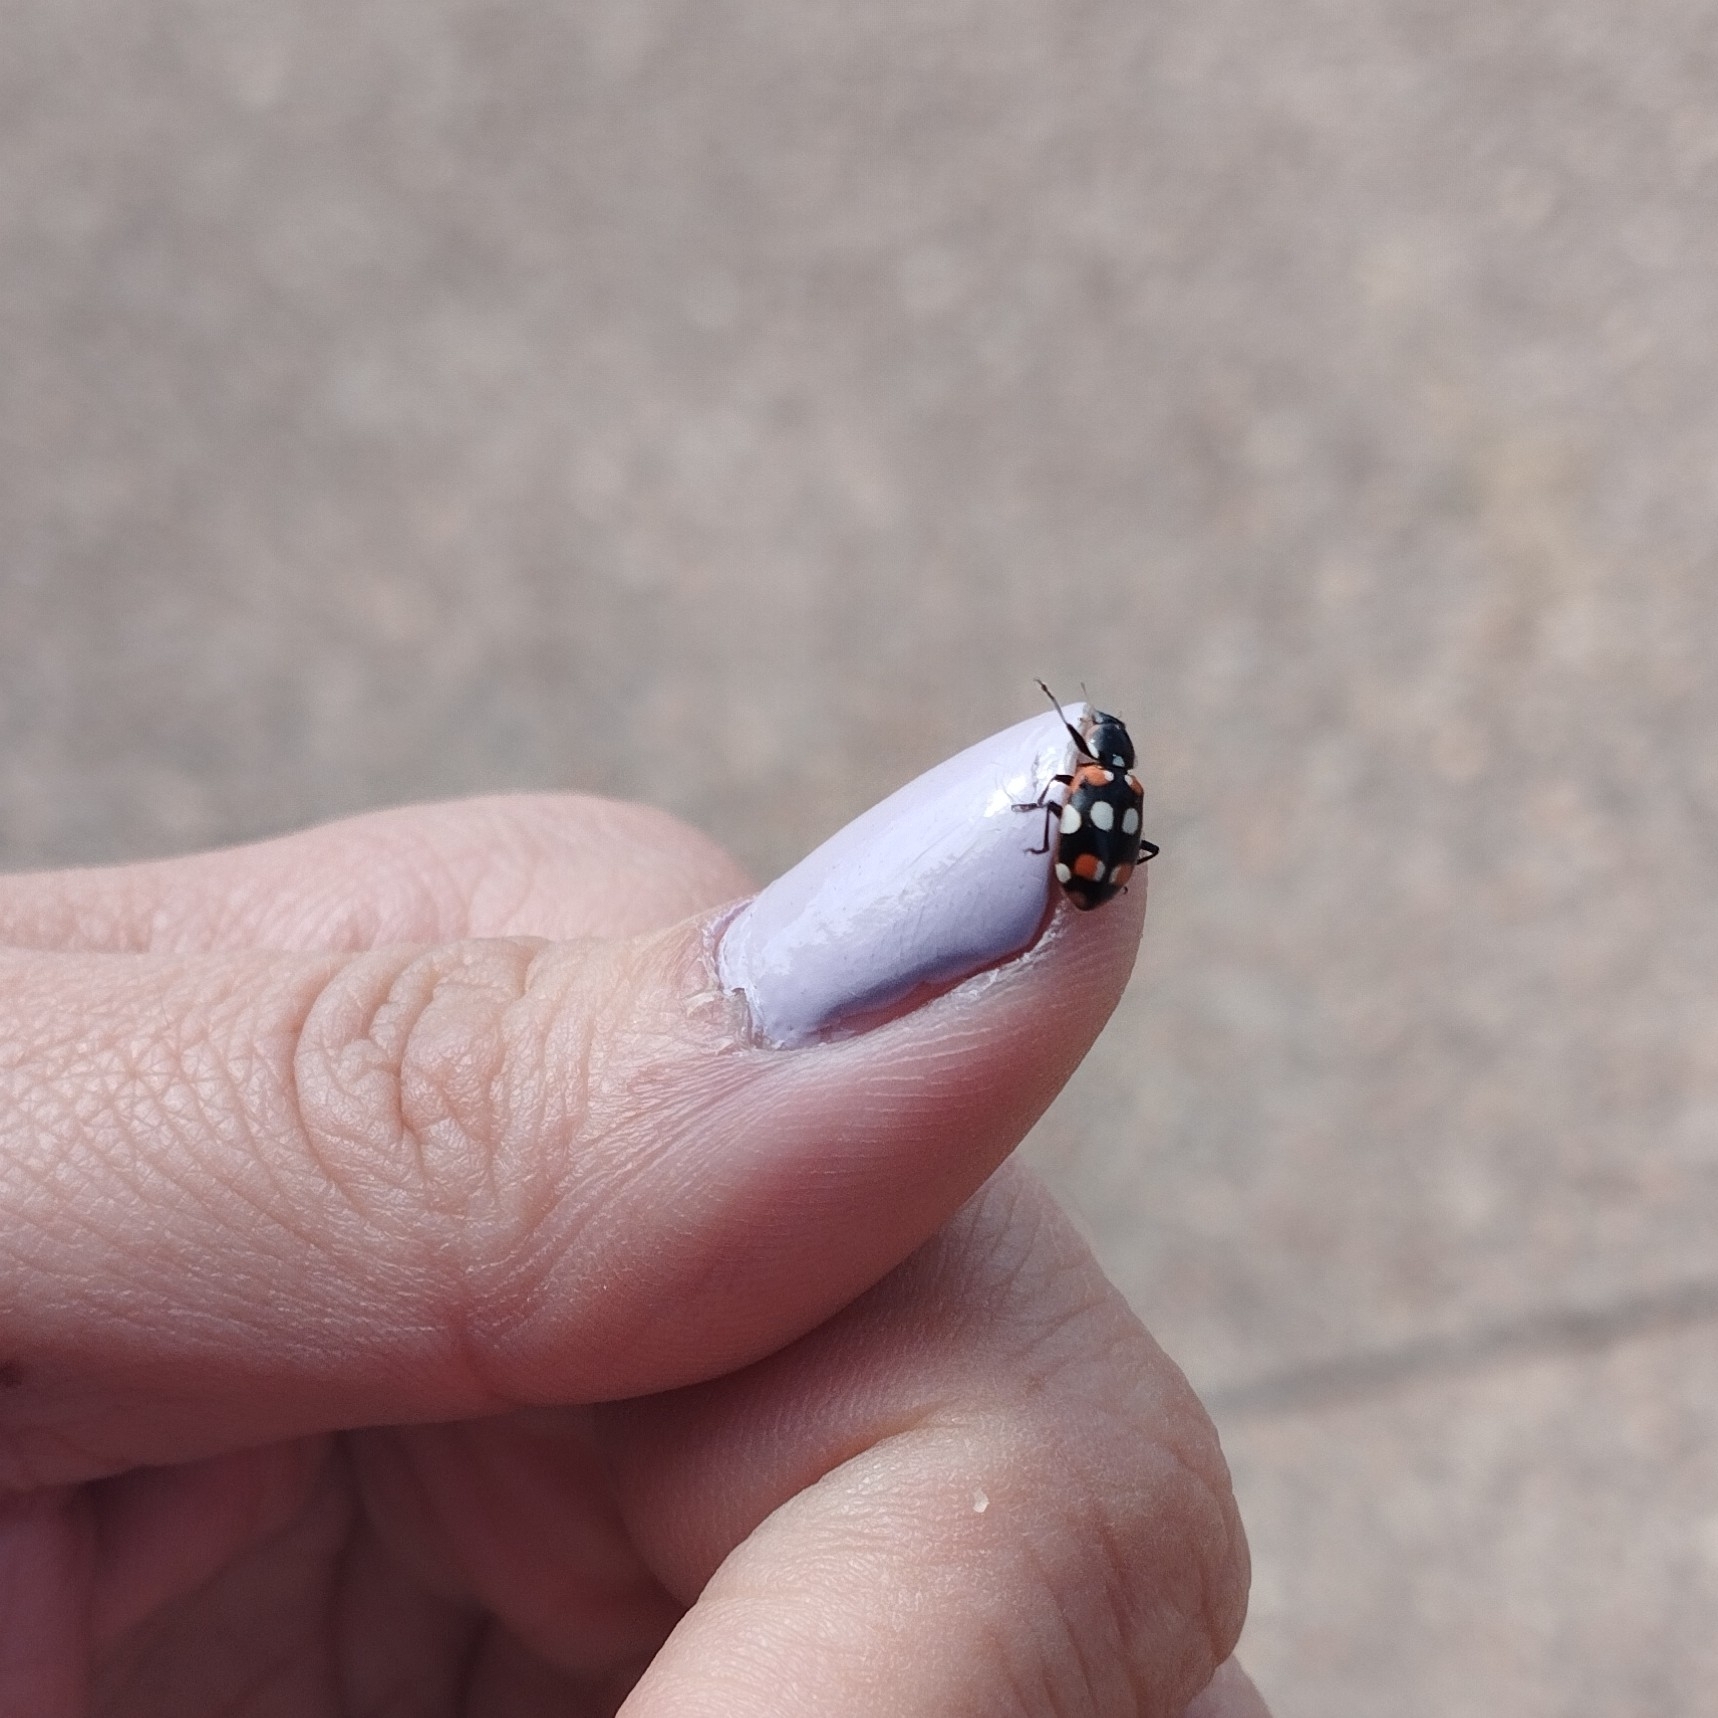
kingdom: Animalia
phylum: Arthropoda
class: Insecta
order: Coleoptera
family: Coccinellidae
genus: Eriopis
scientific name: Eriopis connexa
